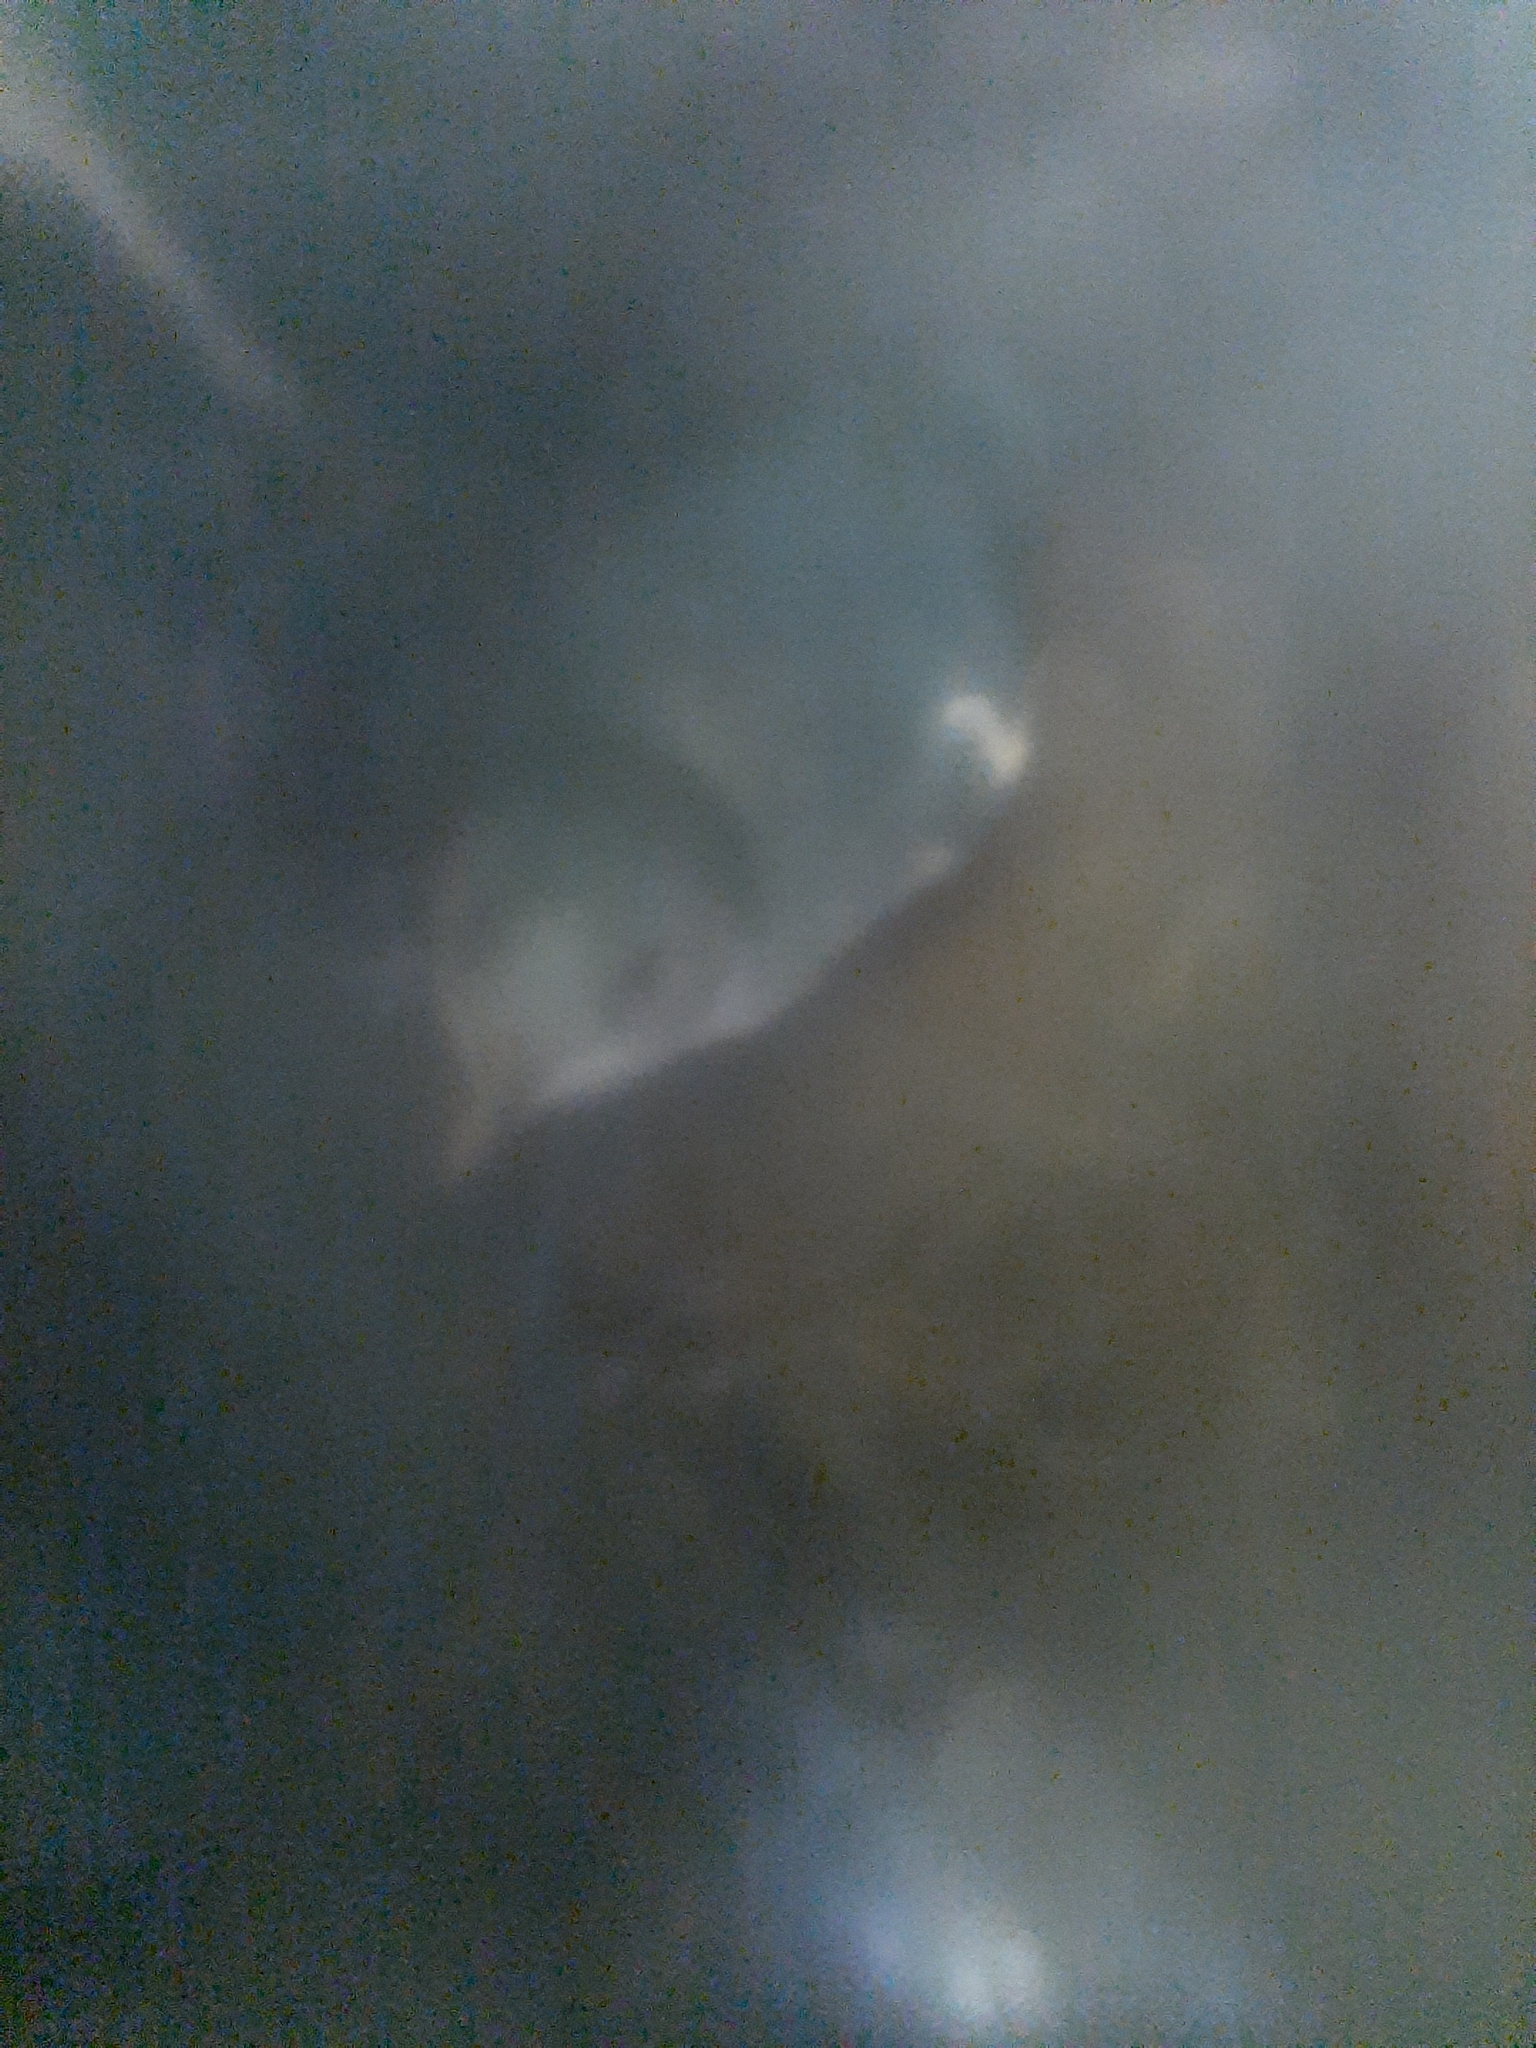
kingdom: Animalia
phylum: Chordata
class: Aves
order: Sphenisciformes
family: Spheniscidae
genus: Eudyptula
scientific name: Eudyptula minor
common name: Little penguin
